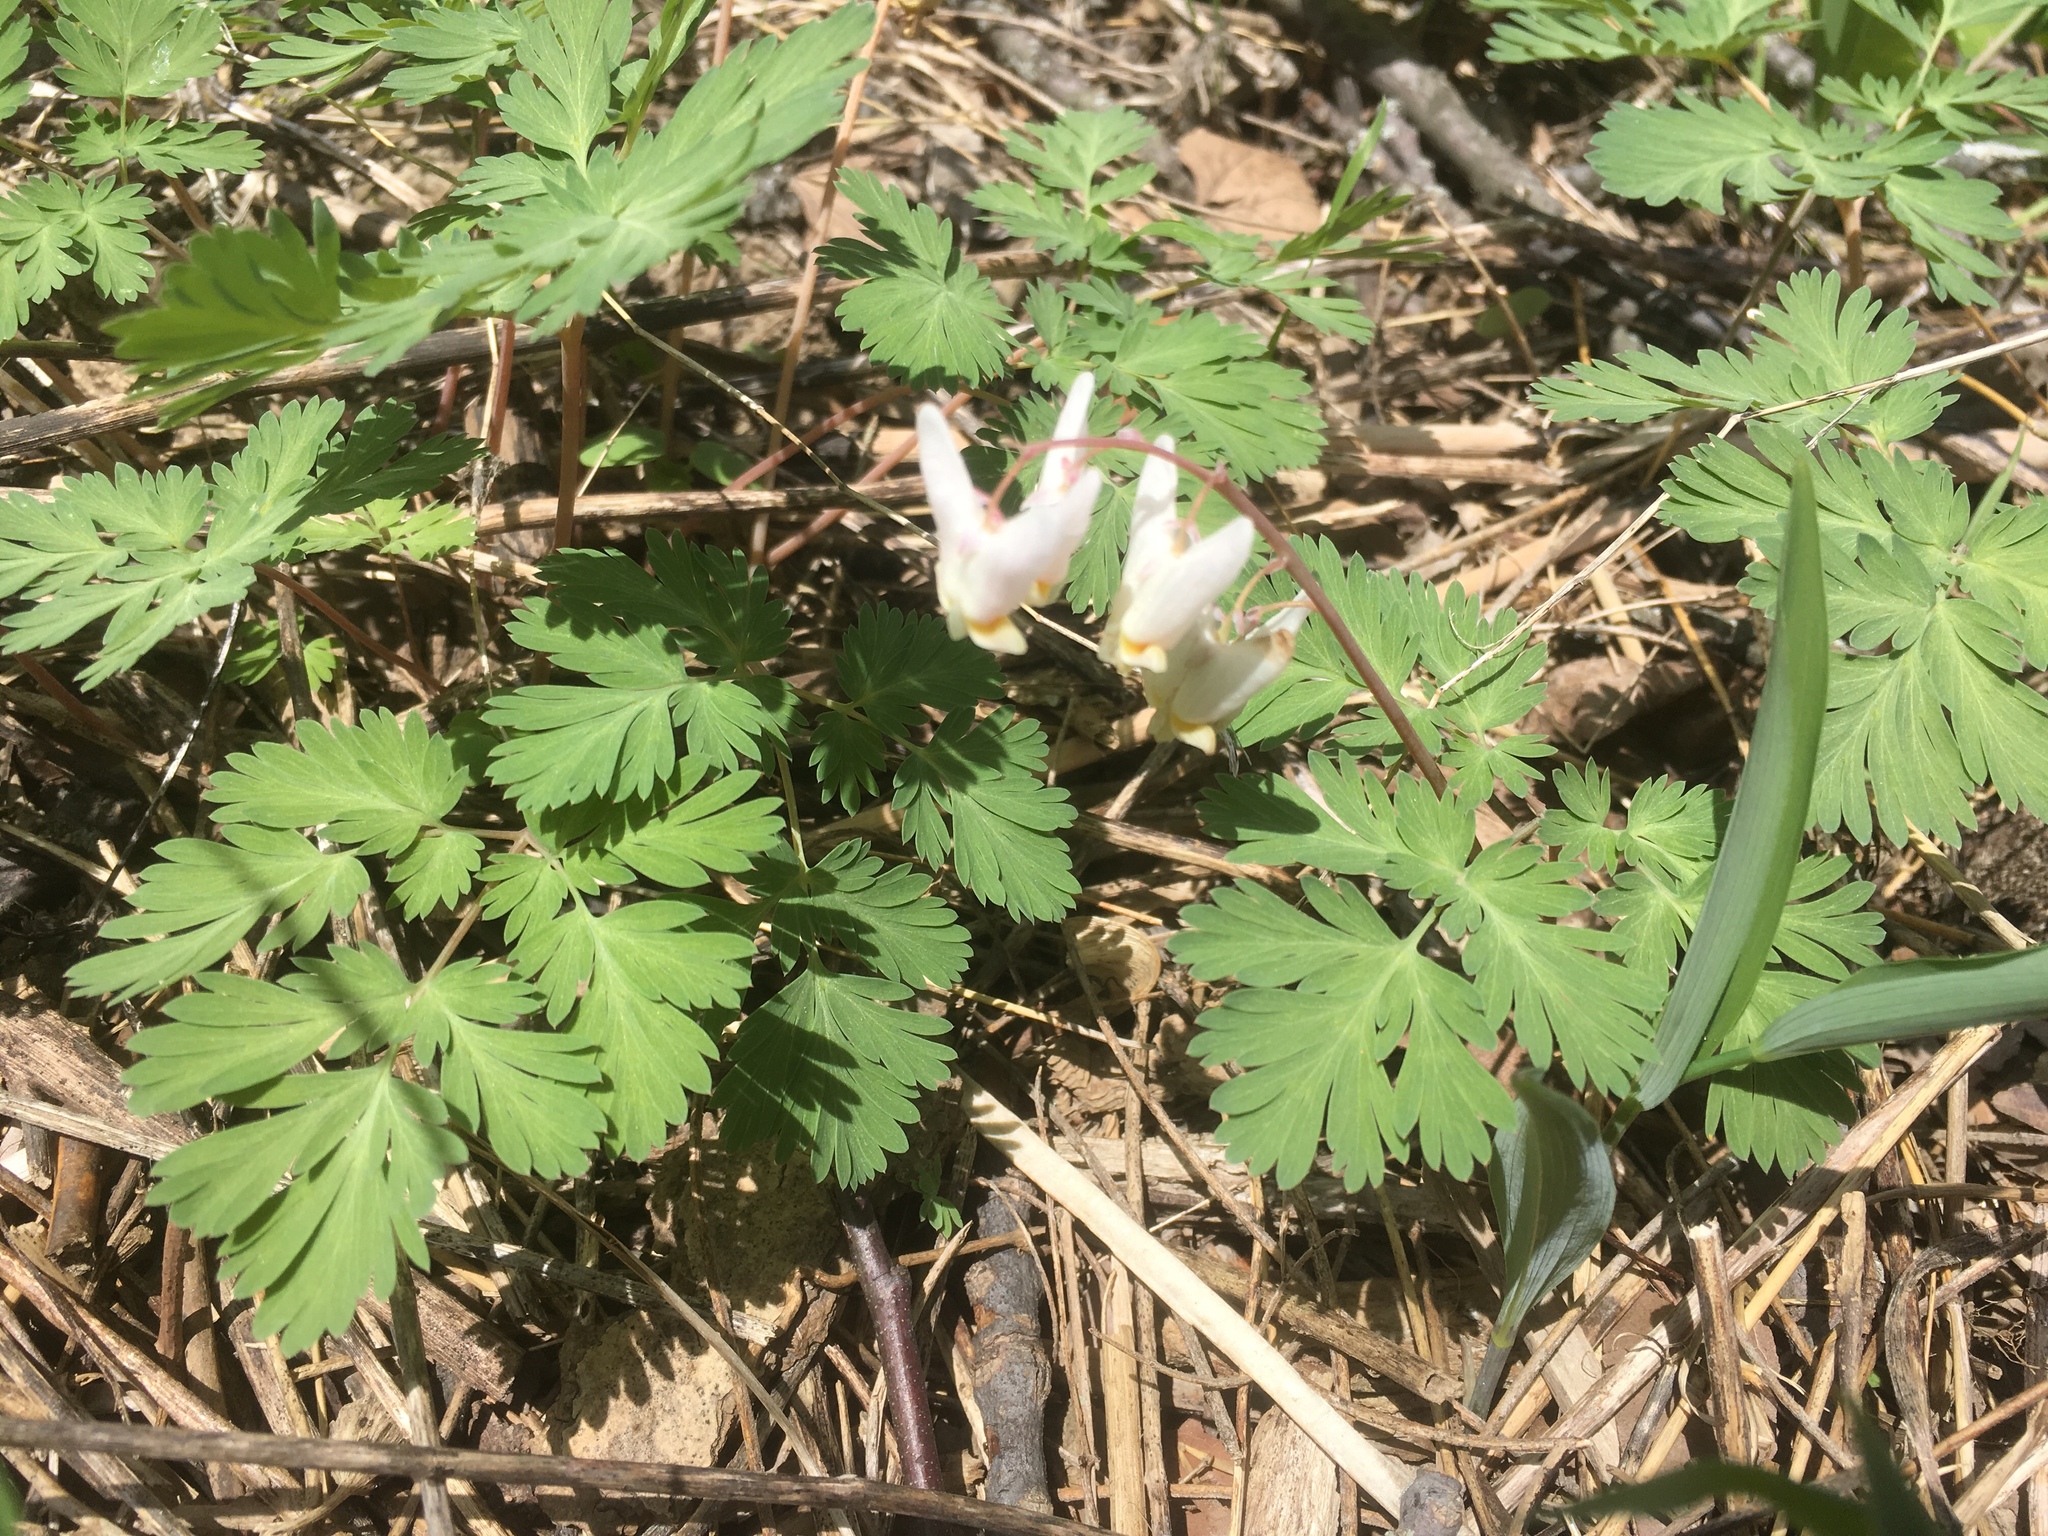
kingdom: Plantae
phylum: Tracheophyta
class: Magnoliopsida
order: Ranunculales
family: Papaveraceae
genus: Dicentra
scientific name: Dicentra cucullaria
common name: Dutchman's breeches
